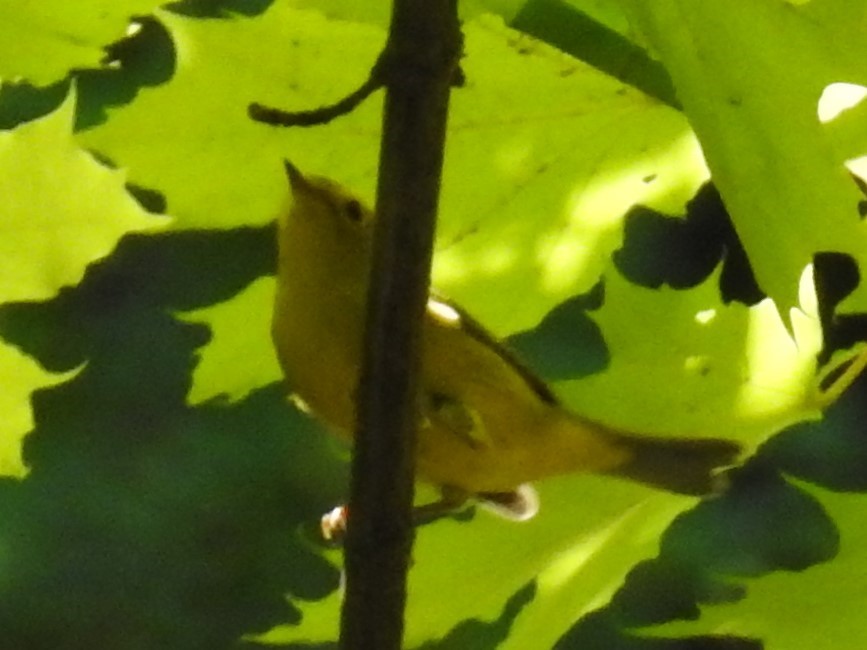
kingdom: Animalia
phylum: Chordata
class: Aves
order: Passeriformes
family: Parulidae
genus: Cardellina
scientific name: Cardellina pusilla
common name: Wilson's warbler
